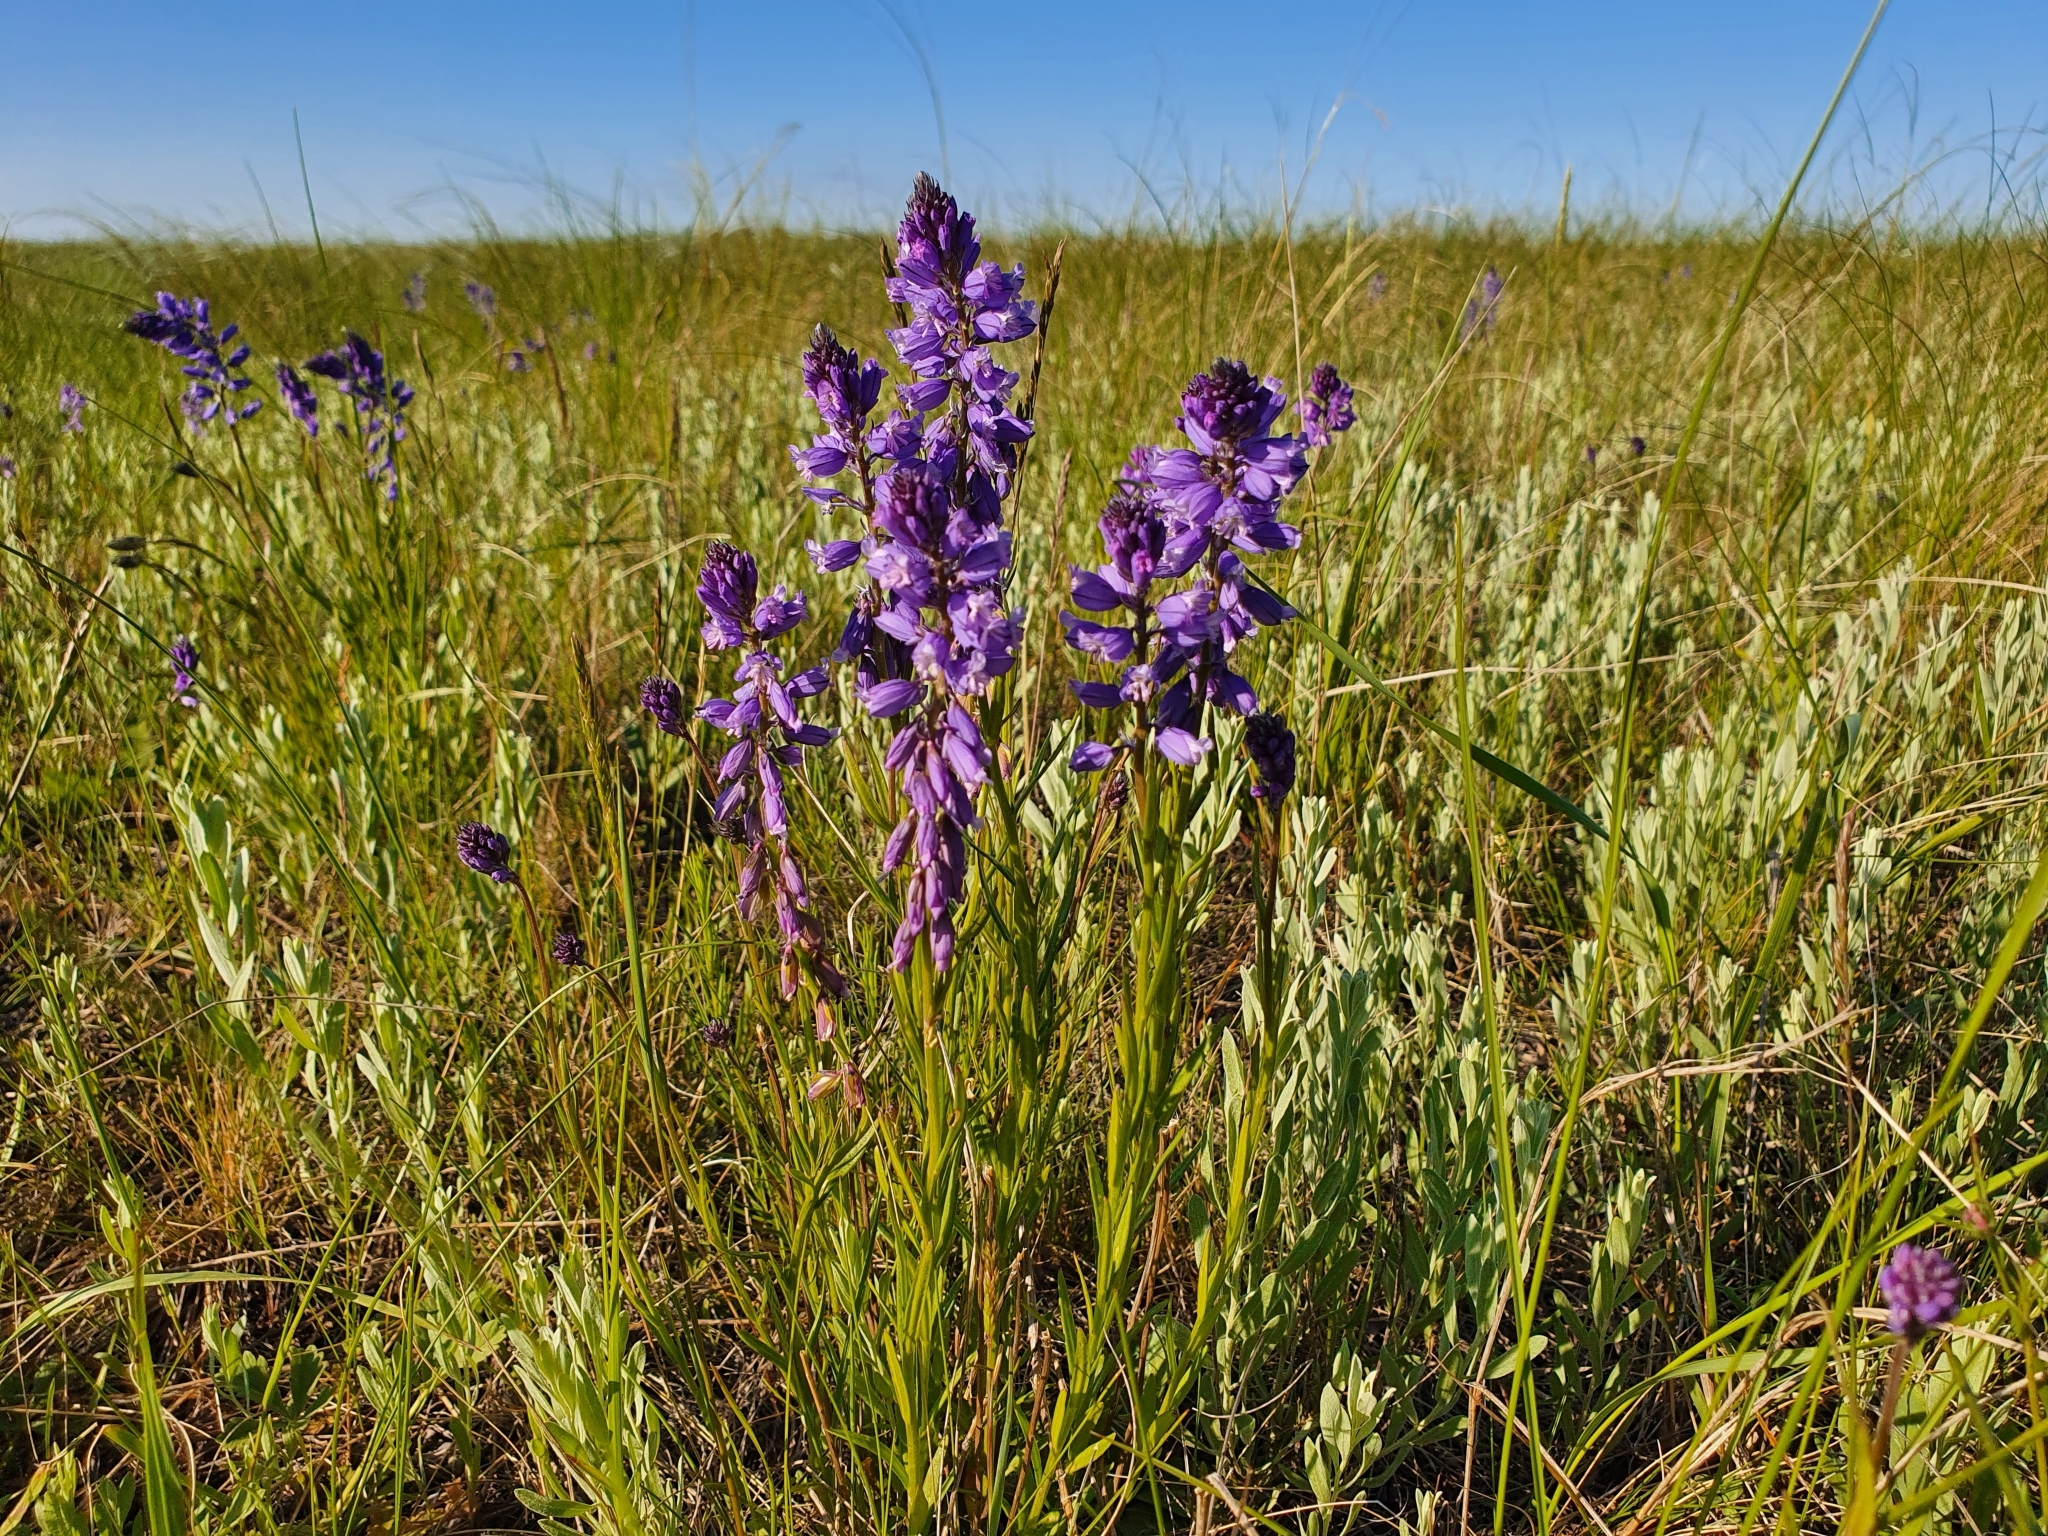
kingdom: Plantae
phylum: Tracheophyta
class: Magnoliopsida
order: Fabales
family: Polygalaceae
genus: Polygala
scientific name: Polygala comosa
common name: Tufted milkwort
